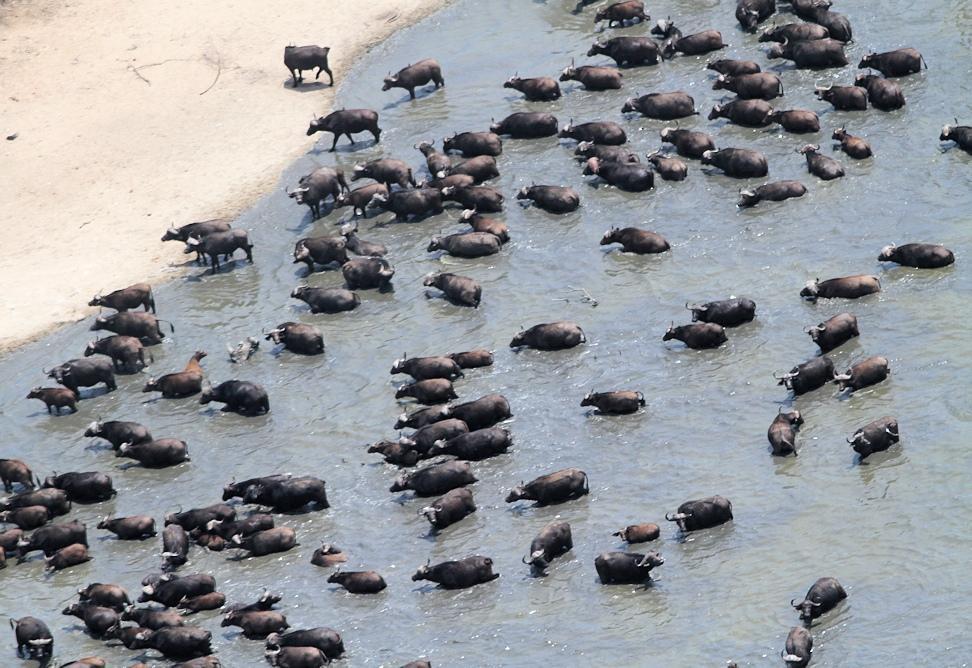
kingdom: Animalia
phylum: Chordata
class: Mammalia
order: Artiodactyla
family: Bovidae
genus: Syncerus
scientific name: Syncerus caffer
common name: African buffalo
